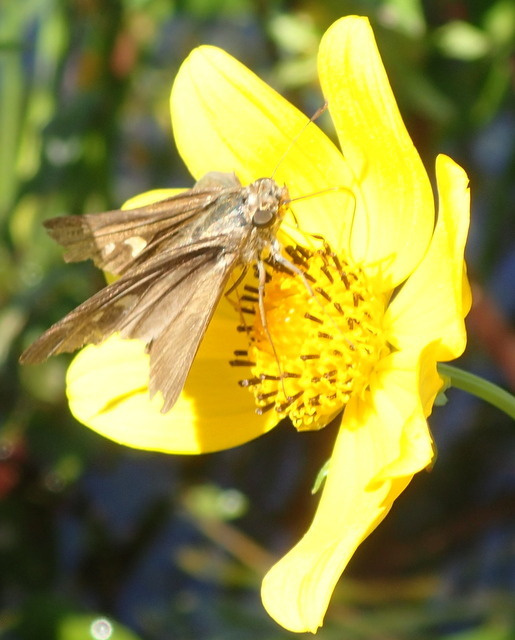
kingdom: Animalia
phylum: Arthropoda
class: Insecta
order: Lepidoptera
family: Hesperiidae
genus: Panoquina
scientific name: Panoquina ocola
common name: Ocola skipper
